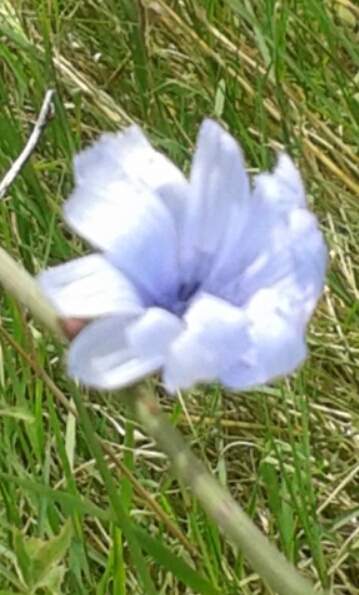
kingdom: Plantae
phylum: Tracheophyta
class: Magnoliopsida
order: Asterales
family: Asteraceae
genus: Cichorium
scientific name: Cichorium intybus
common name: Chicory
